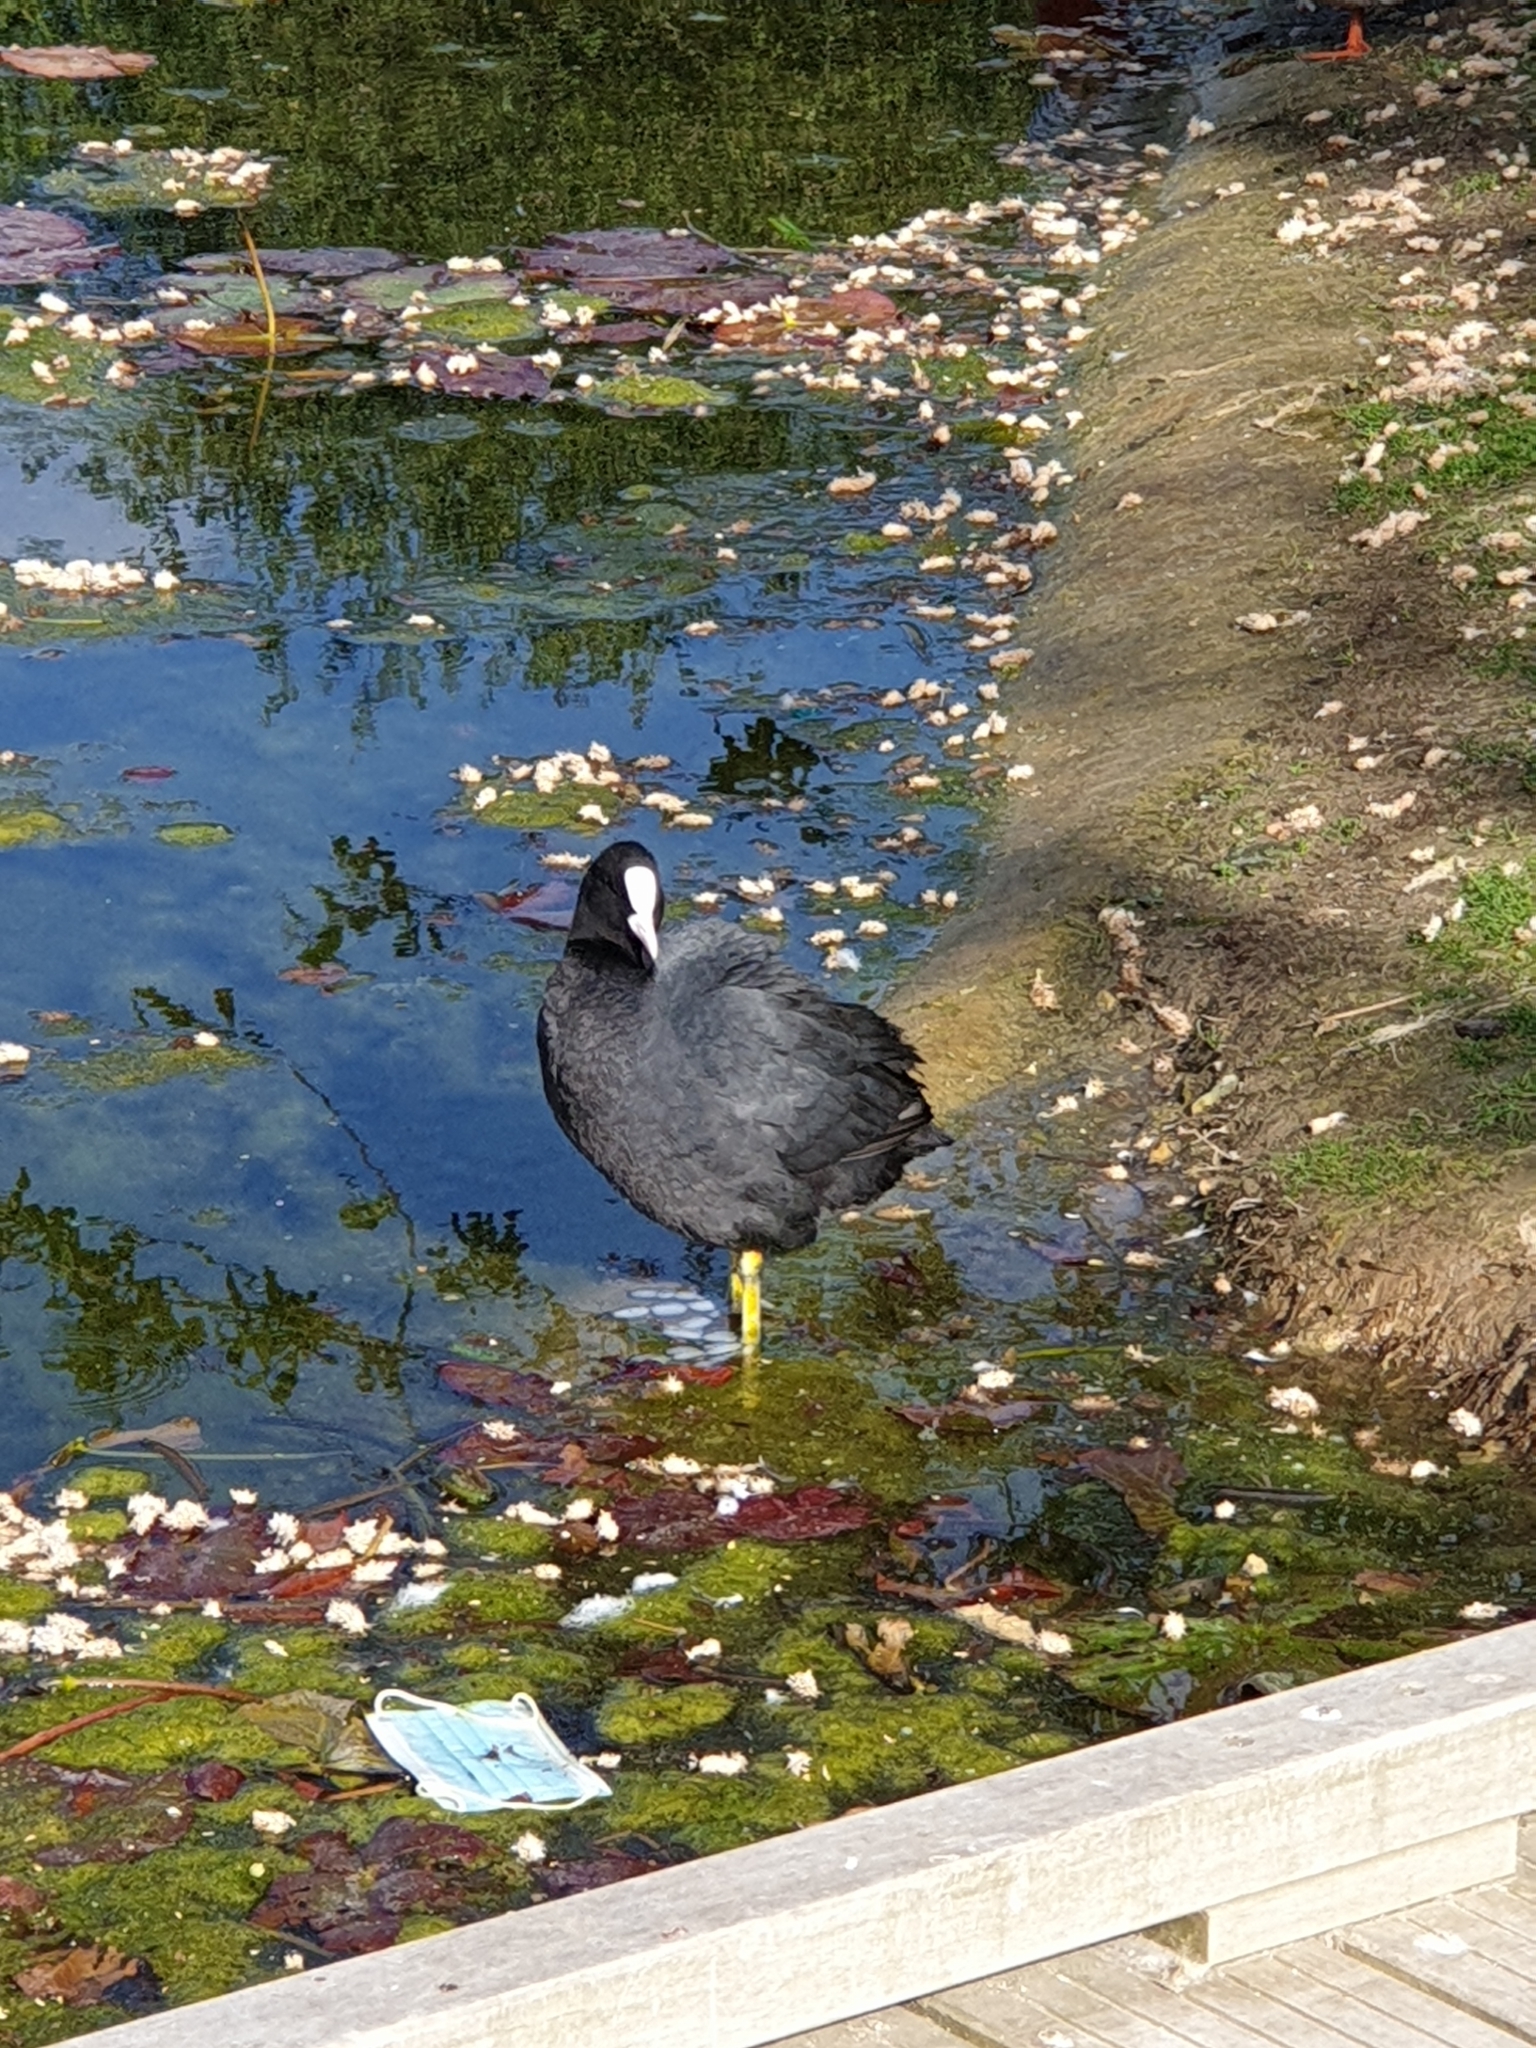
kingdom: Animalia
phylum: Chordata
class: Aves
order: Gruiformes
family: Rallidae
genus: Fulica
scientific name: Fulica atra
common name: Eurasian coot
